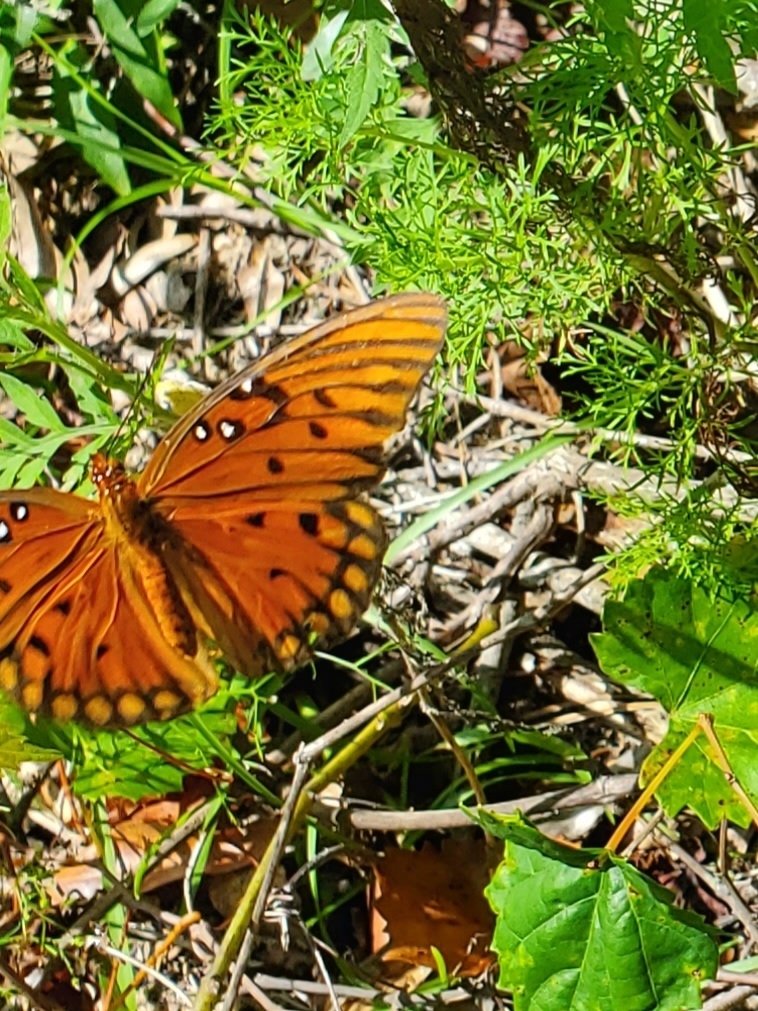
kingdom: Animalia
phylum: Arthropoda
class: Insecta
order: Lepidoptera
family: Nymphalidae
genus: Dione
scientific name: Dione vanillae
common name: Gulf fritillary
